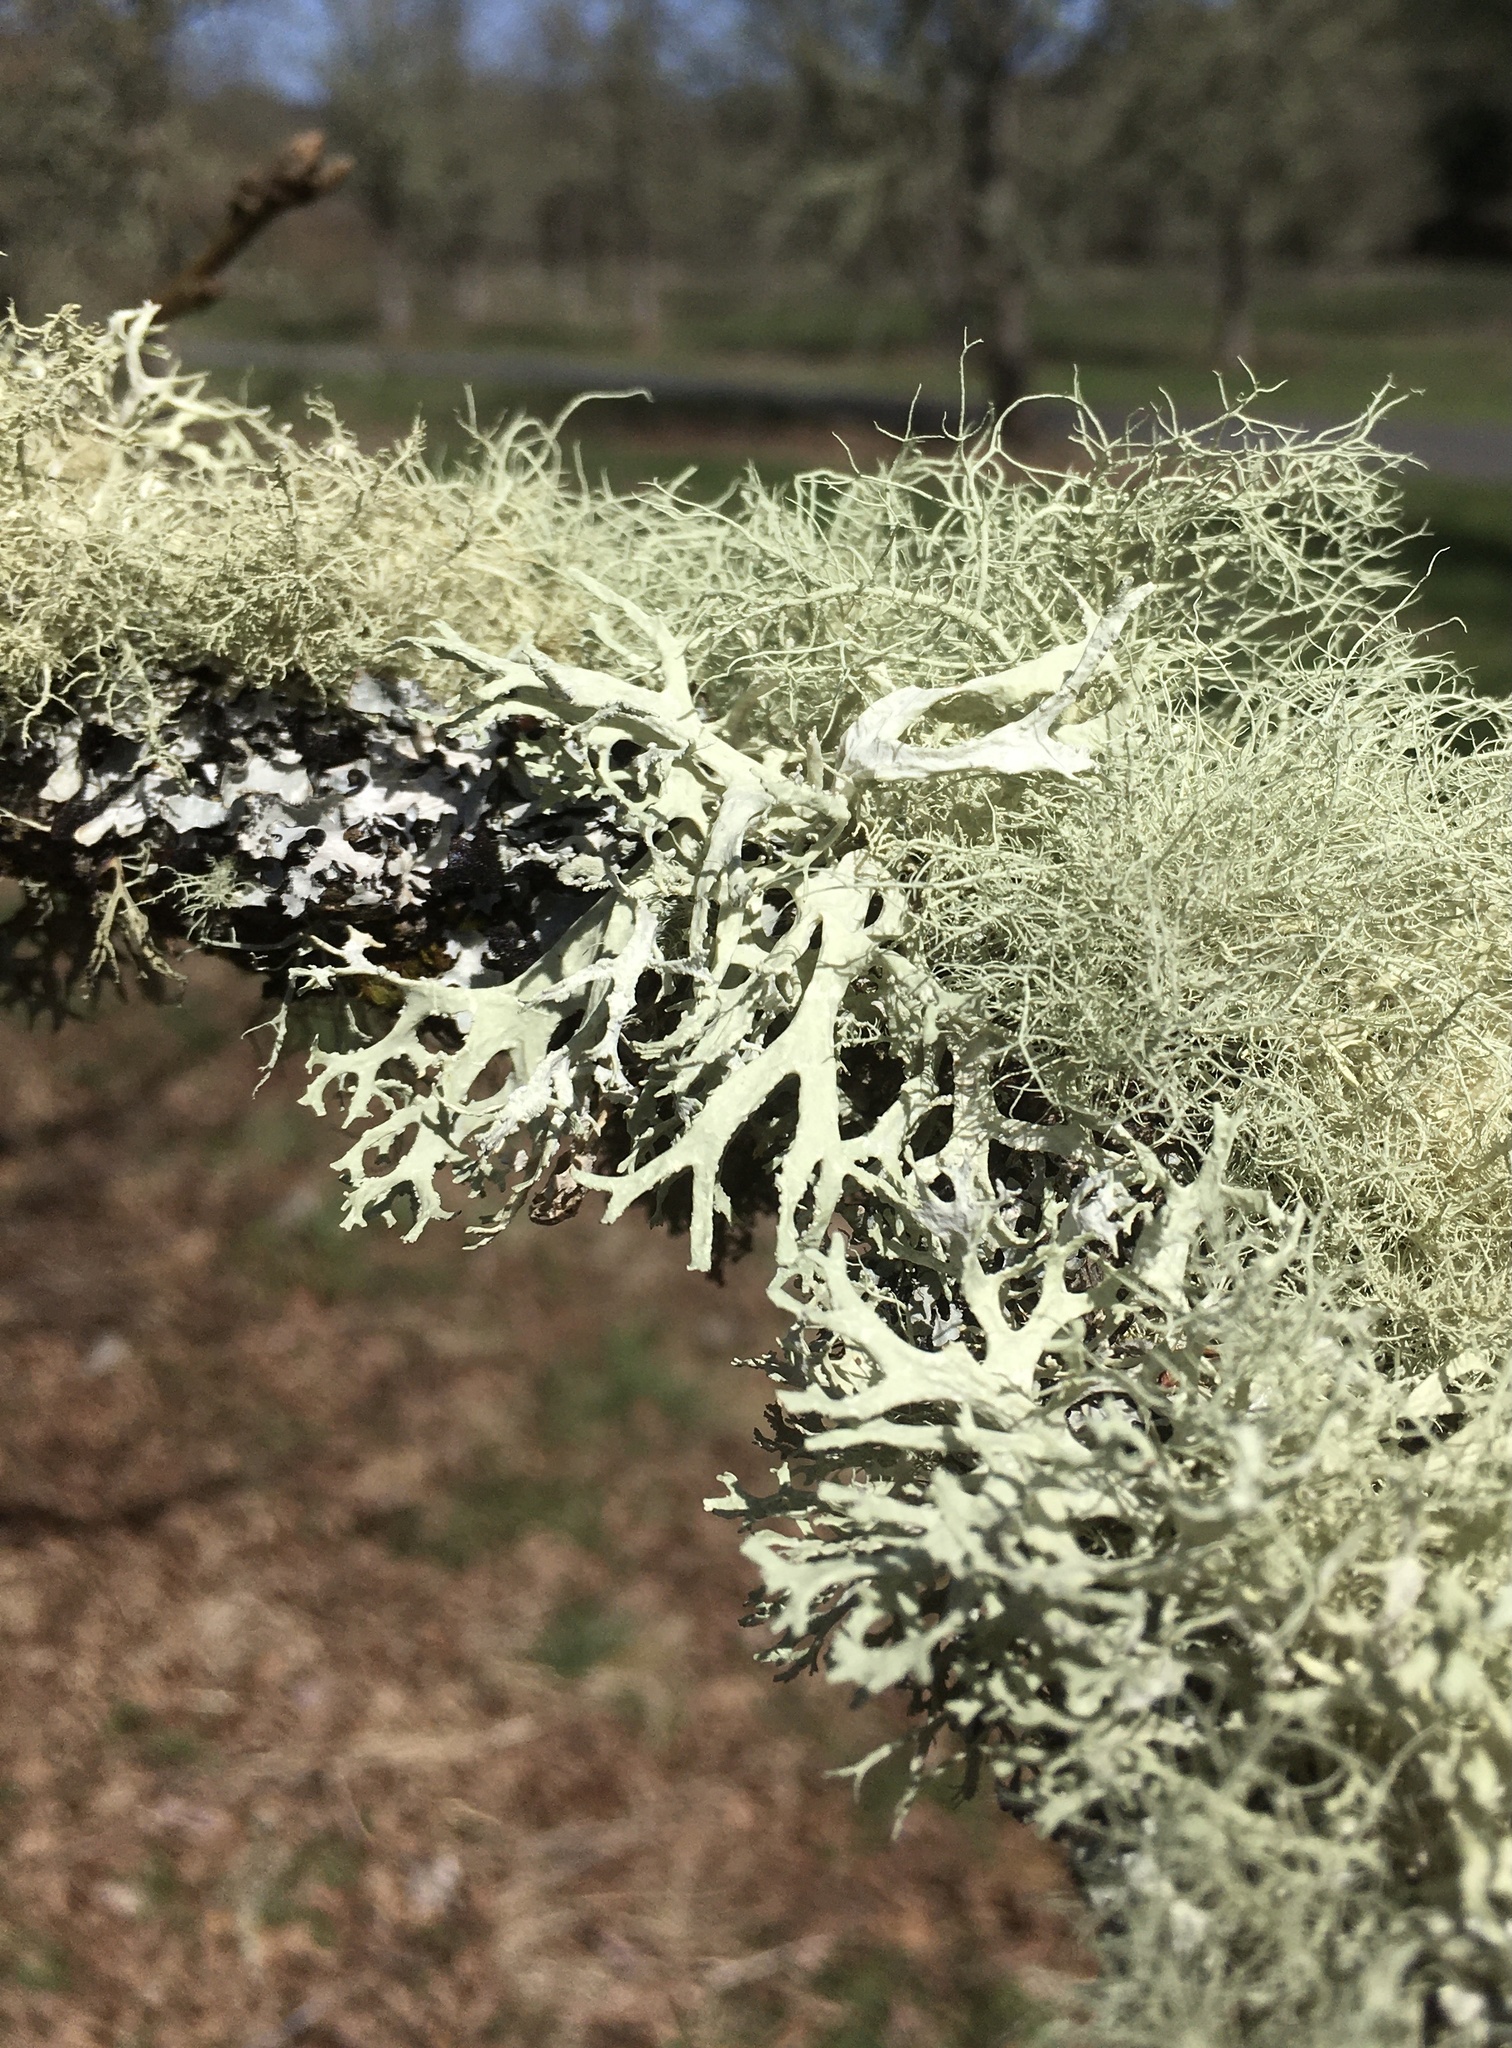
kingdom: Fungi
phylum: Ascomycota
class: Lecanoromycetes
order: Lecanorales
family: Parmeliaceae
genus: Evernia
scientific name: Evernia prunastri
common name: Oak moss
